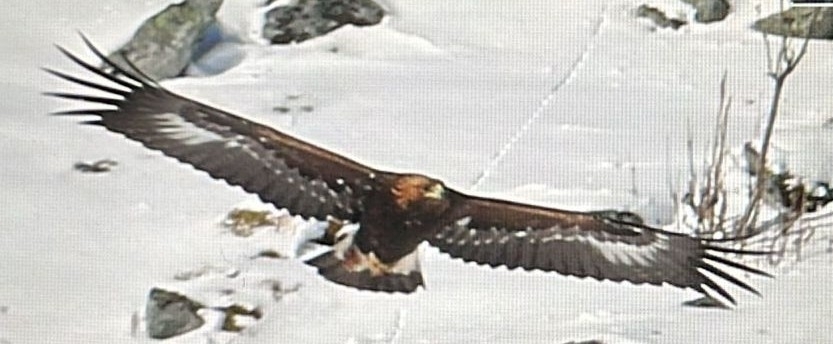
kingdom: Animalia
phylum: Chordata
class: Aves
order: Accipitriformes
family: Accipitridae
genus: Aquila
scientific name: Aquila chrysaetos
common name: Golden eagle
